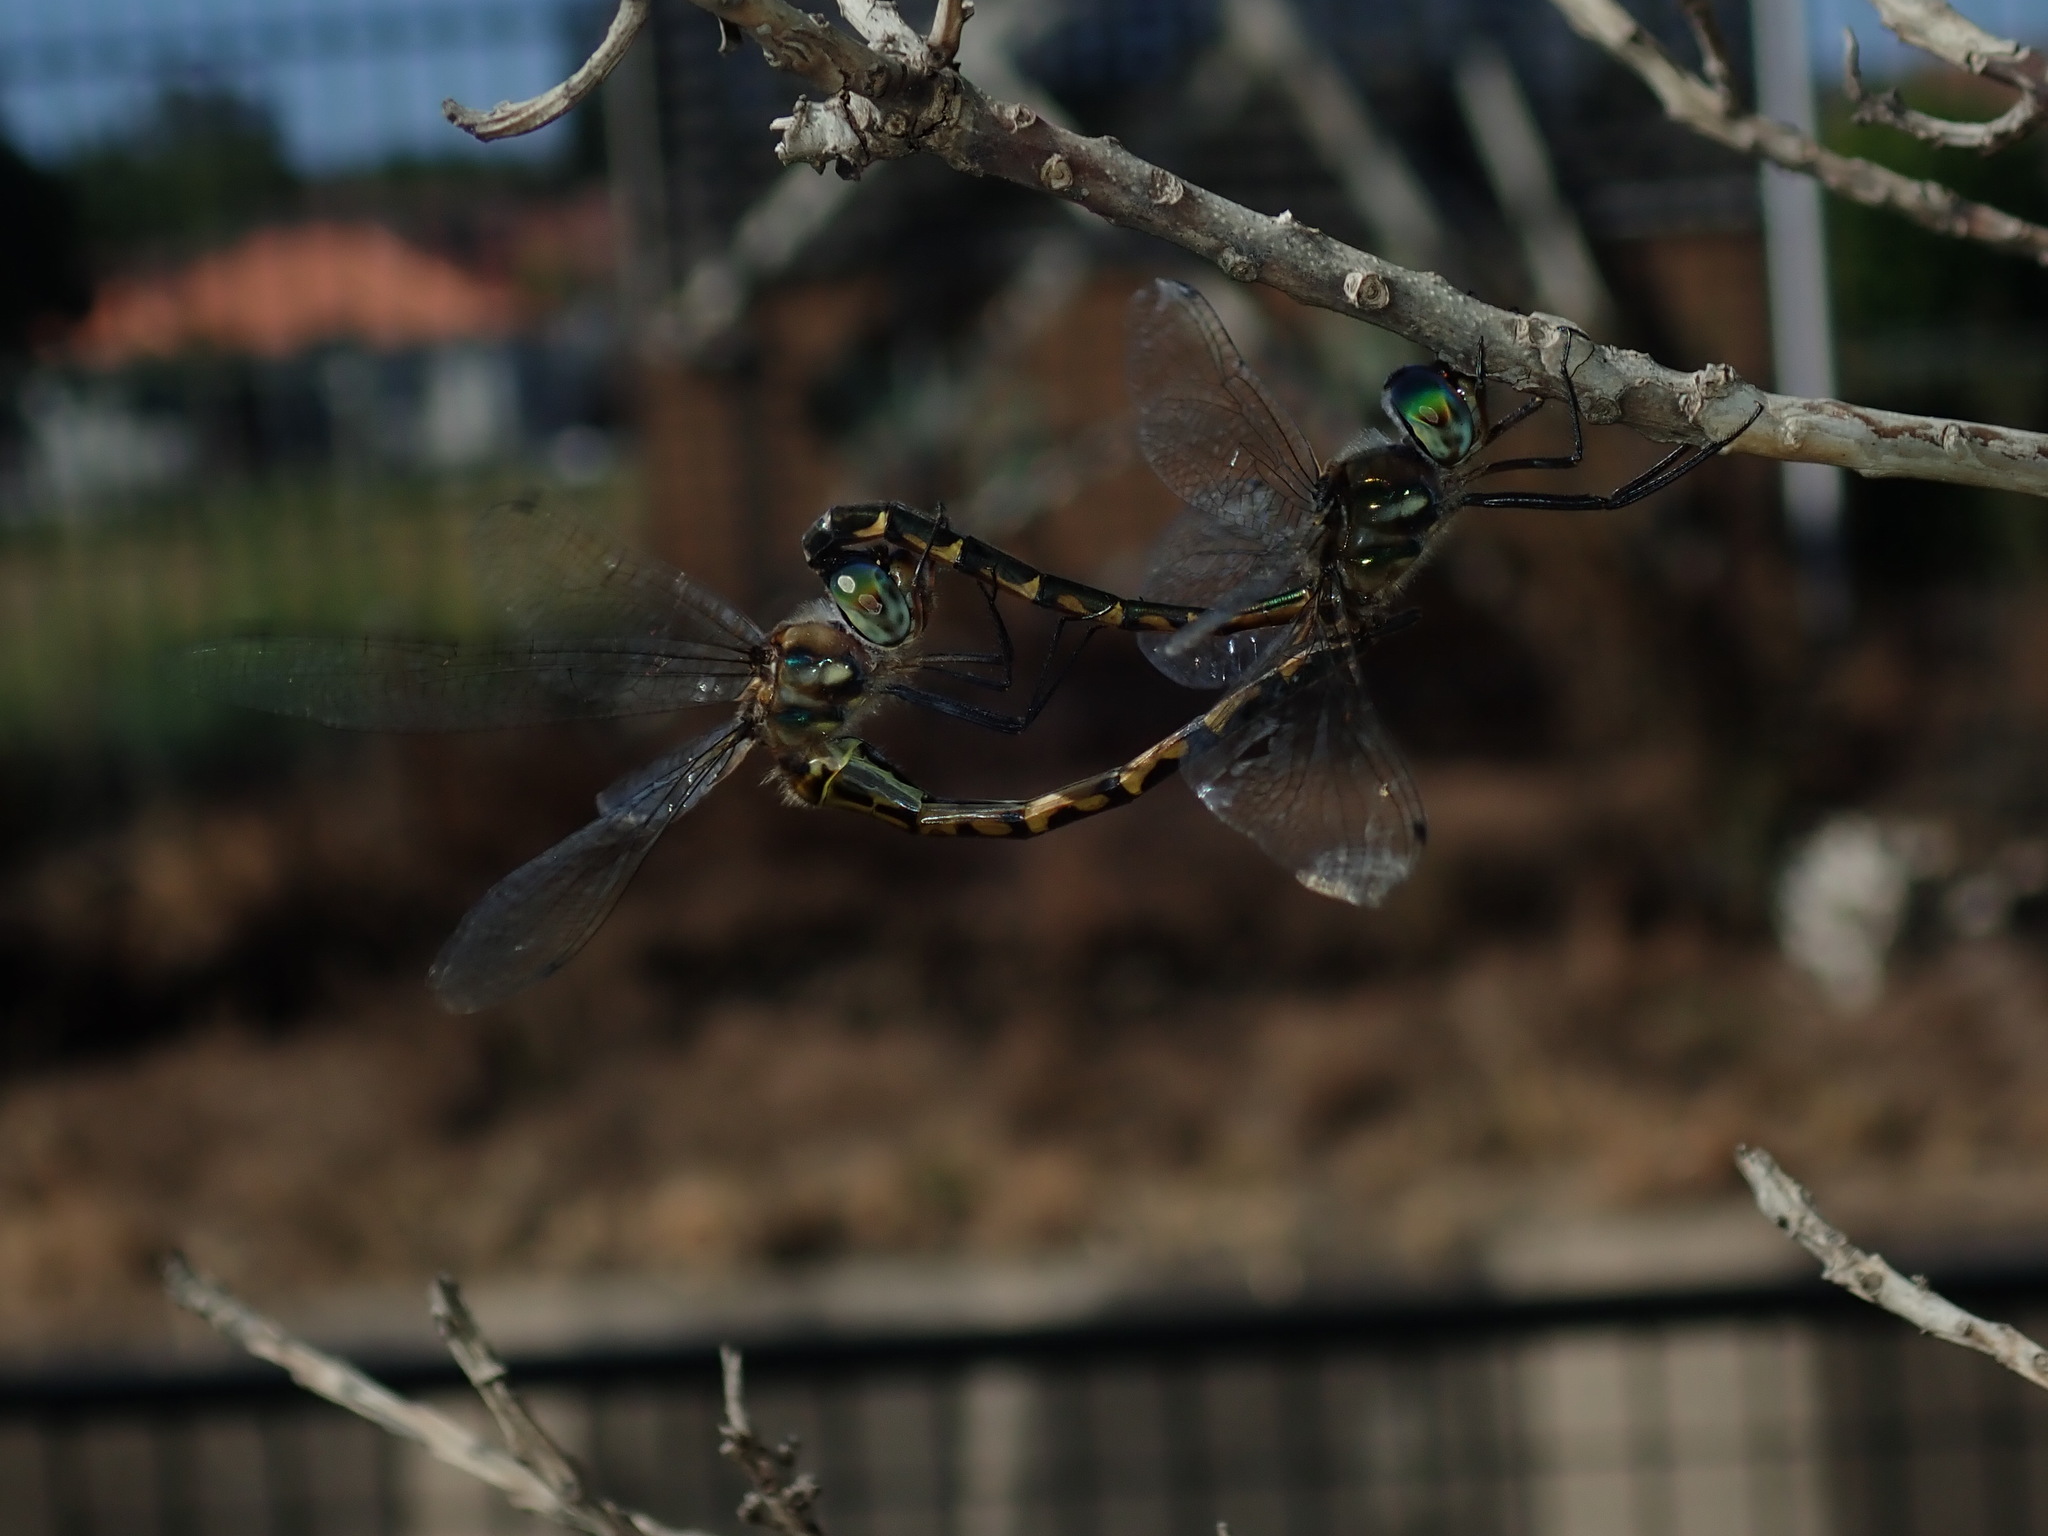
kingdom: Animalia
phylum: Arthropoda
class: Insecta
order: Odonata
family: Corduliidae
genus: Hemicordulia
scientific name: Hemicordulia australiae
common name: Sentry dragonfly
